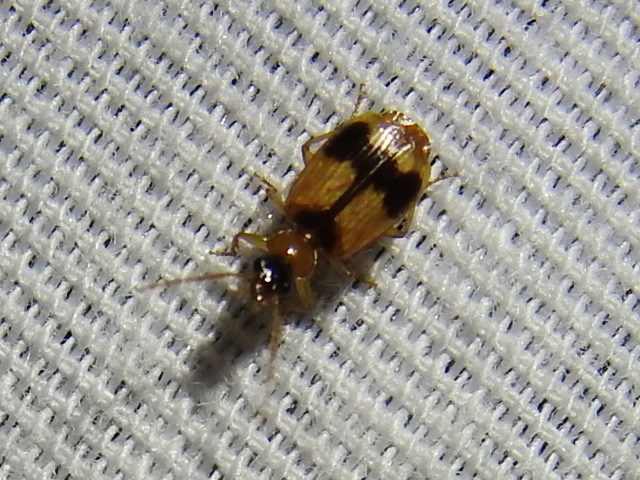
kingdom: Animalia
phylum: Arthropoda
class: Insecta
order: Coleoptera
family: Carabidae
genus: Lebia
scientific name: Lebia esurialis
